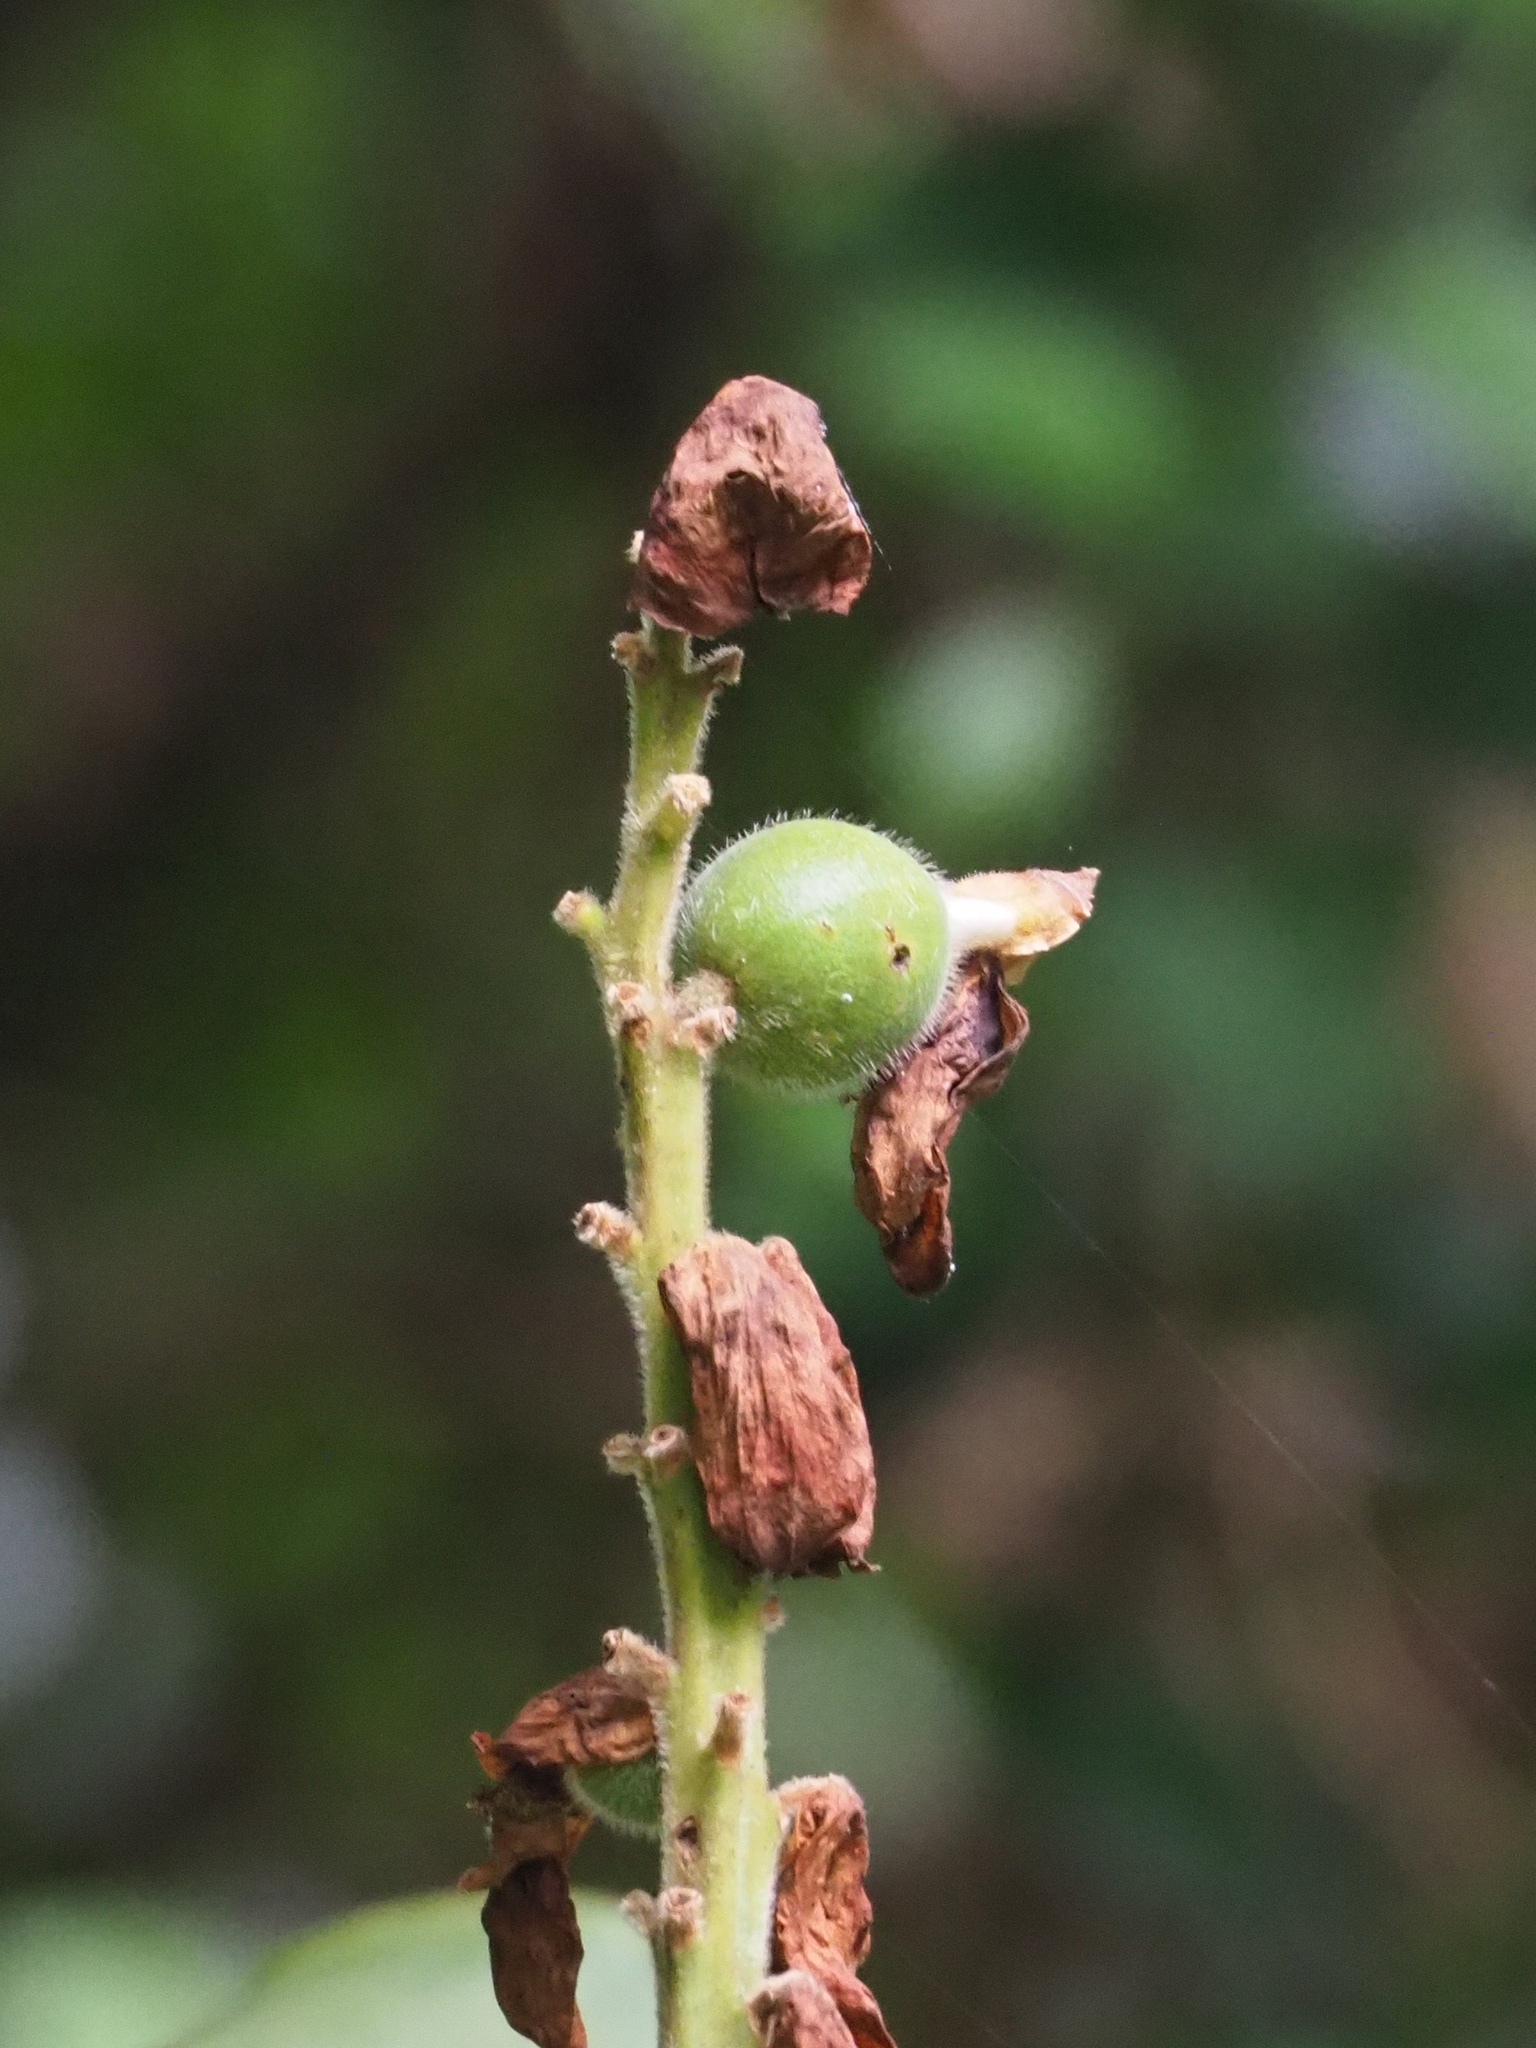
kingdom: Plantae
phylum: Tracheophyta
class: Liliopsida
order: Zingiberales
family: Zingiberaceae
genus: Alpinia
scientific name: Alpinia uraiensis
